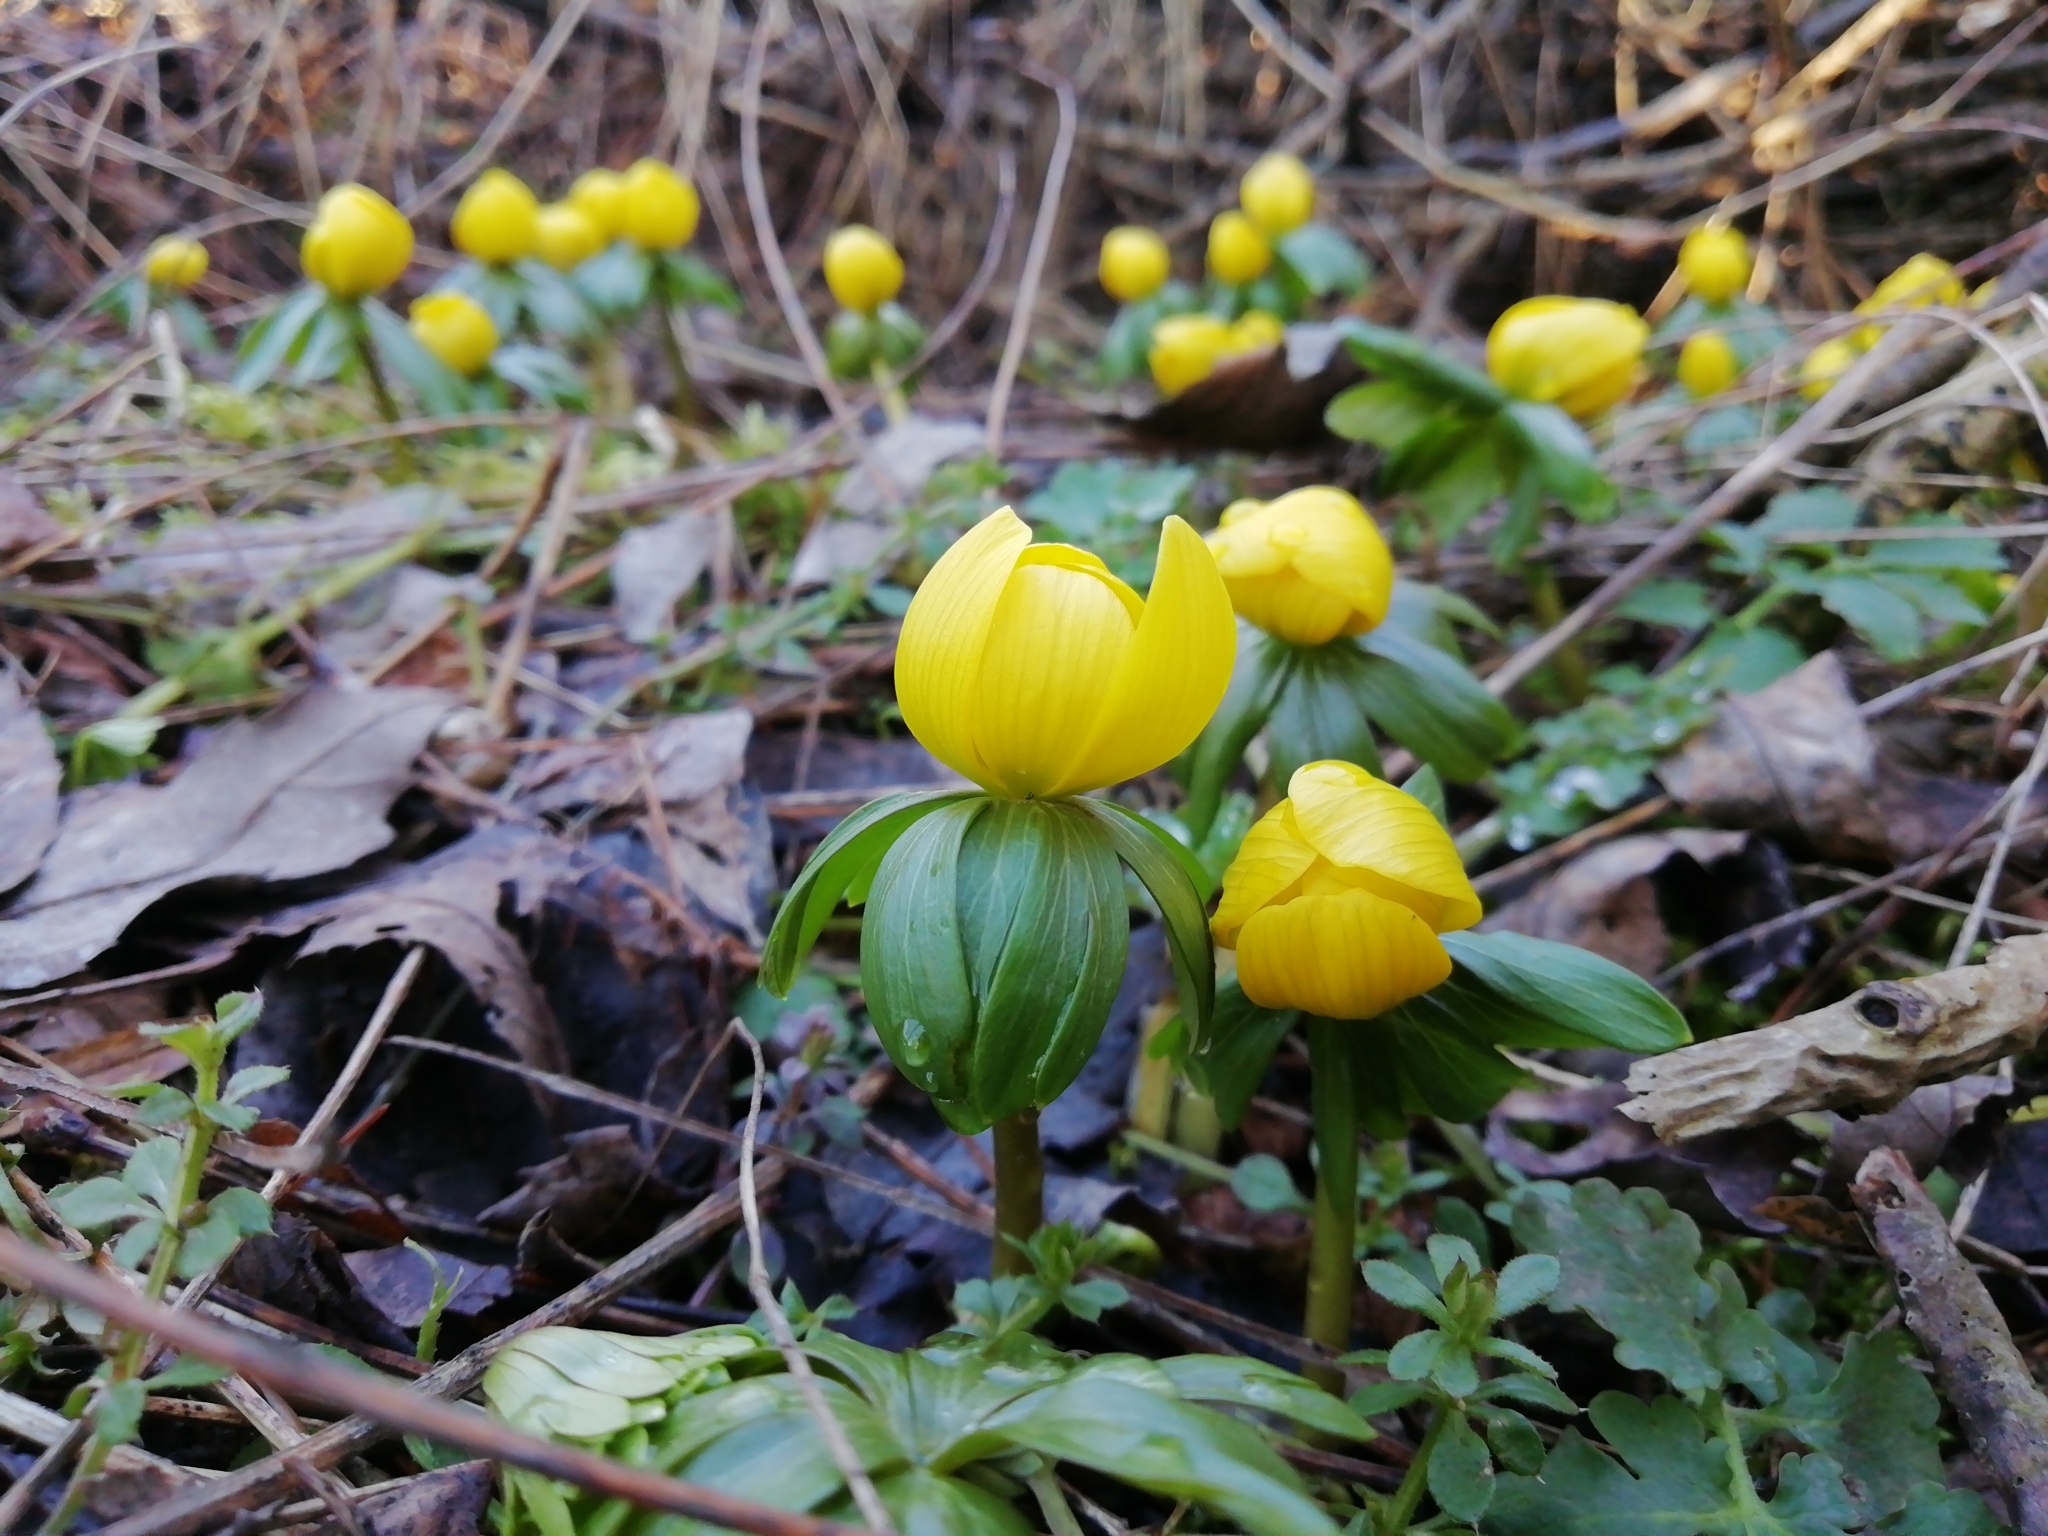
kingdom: Plantae
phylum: Tracheophyta
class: Magnoliopsida
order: Ranunculales
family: Ranunculaceae
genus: Eranthis
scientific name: Eranthis hyemalis
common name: Winter aconite
